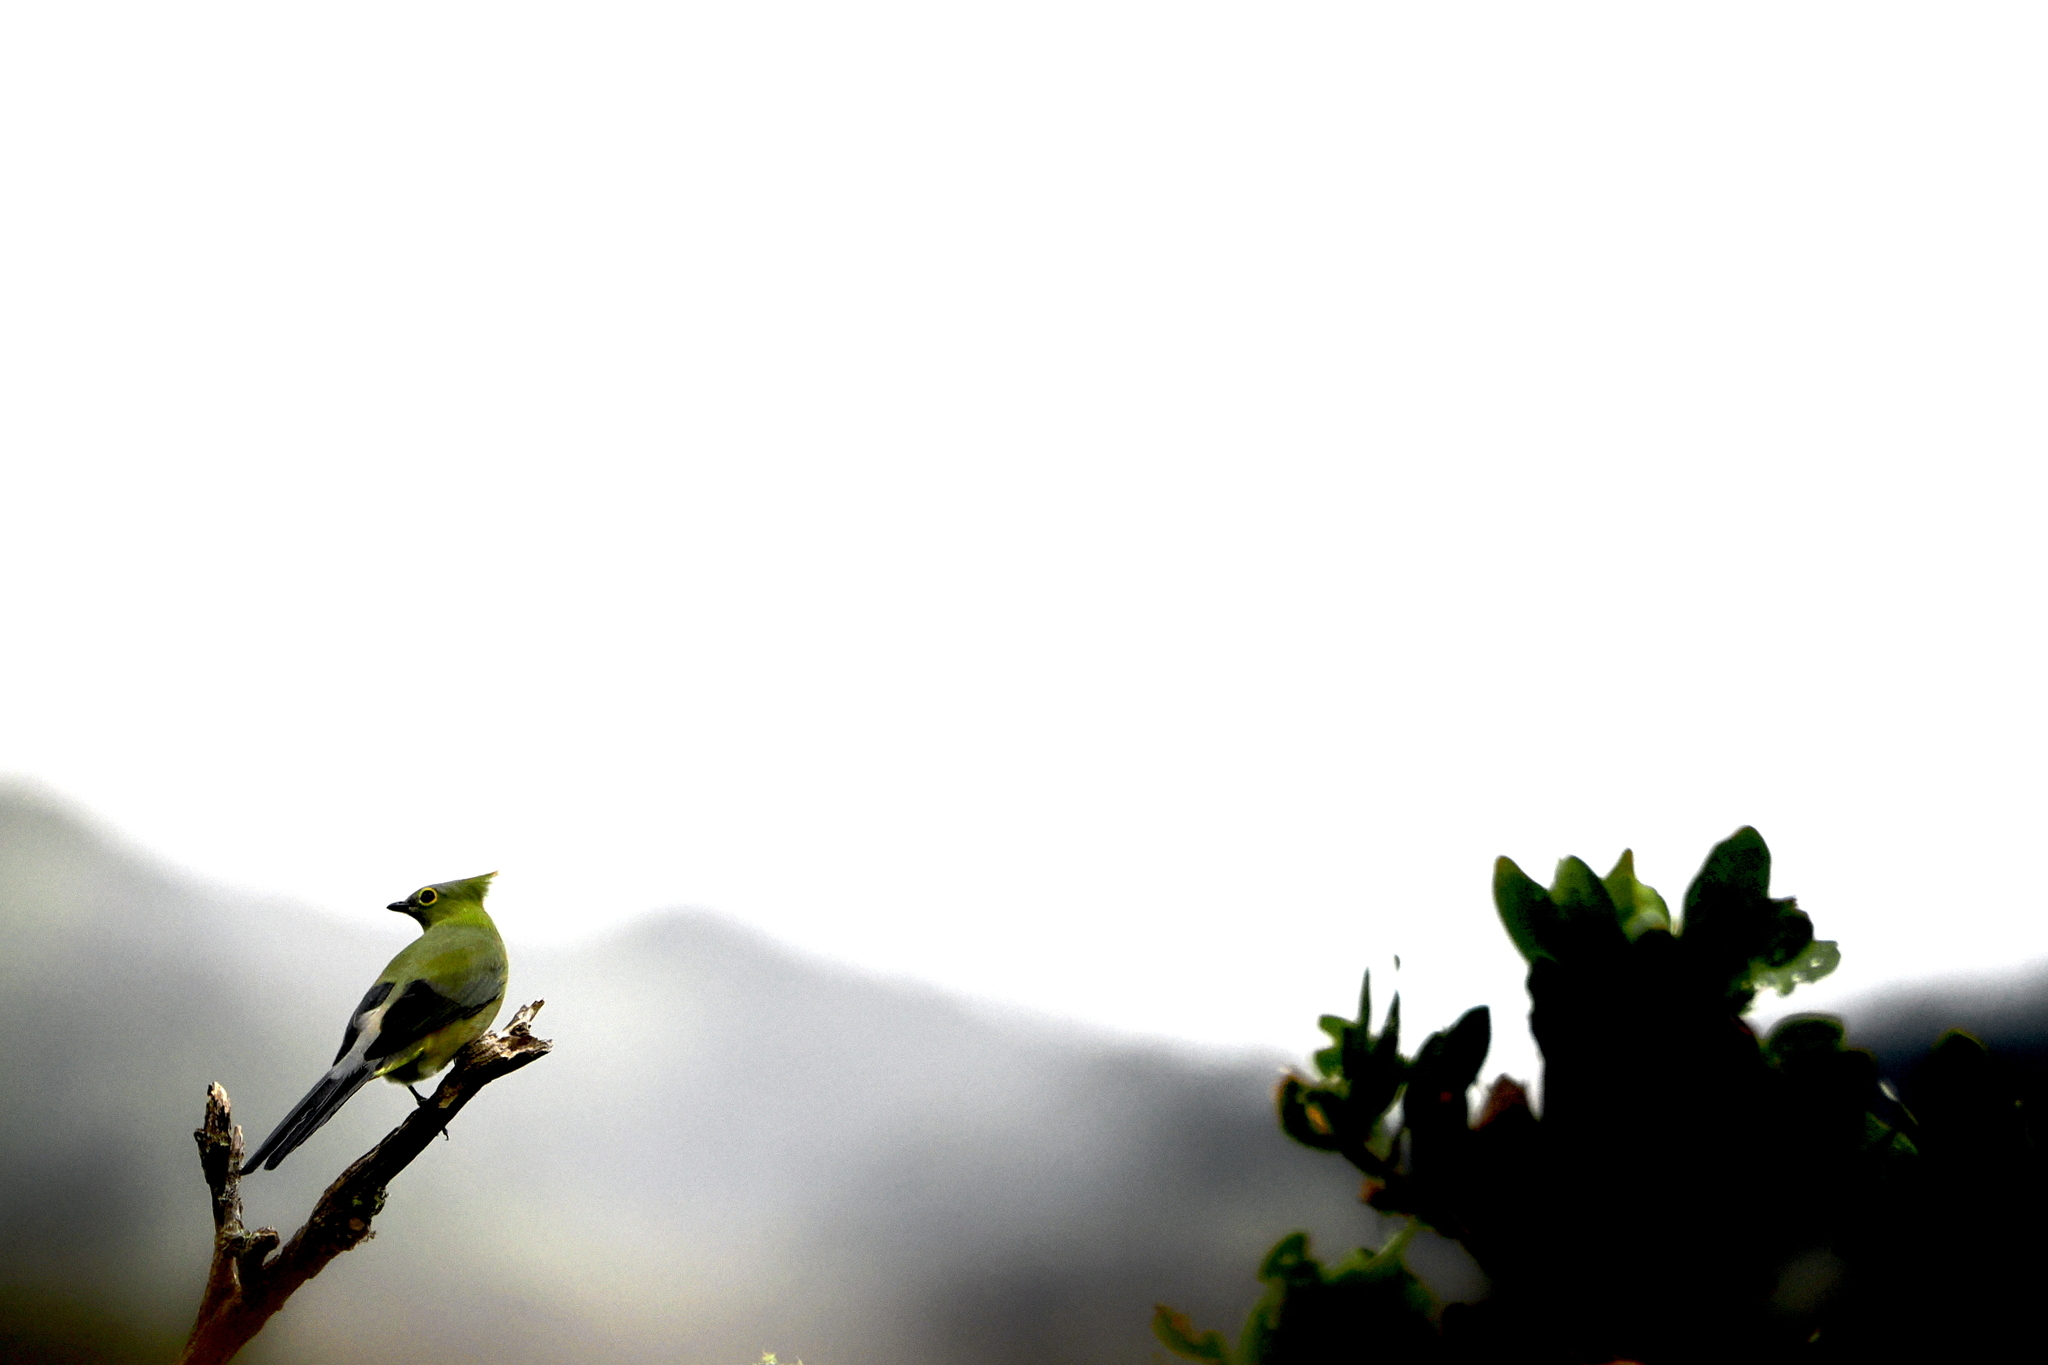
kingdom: Animalia
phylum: Chordata
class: Aves
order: Passeriformes
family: Ptilogonatidae
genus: Ptilogonys
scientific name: Ptilogonys caudatus
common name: Long-tailed silky-flycatcher
